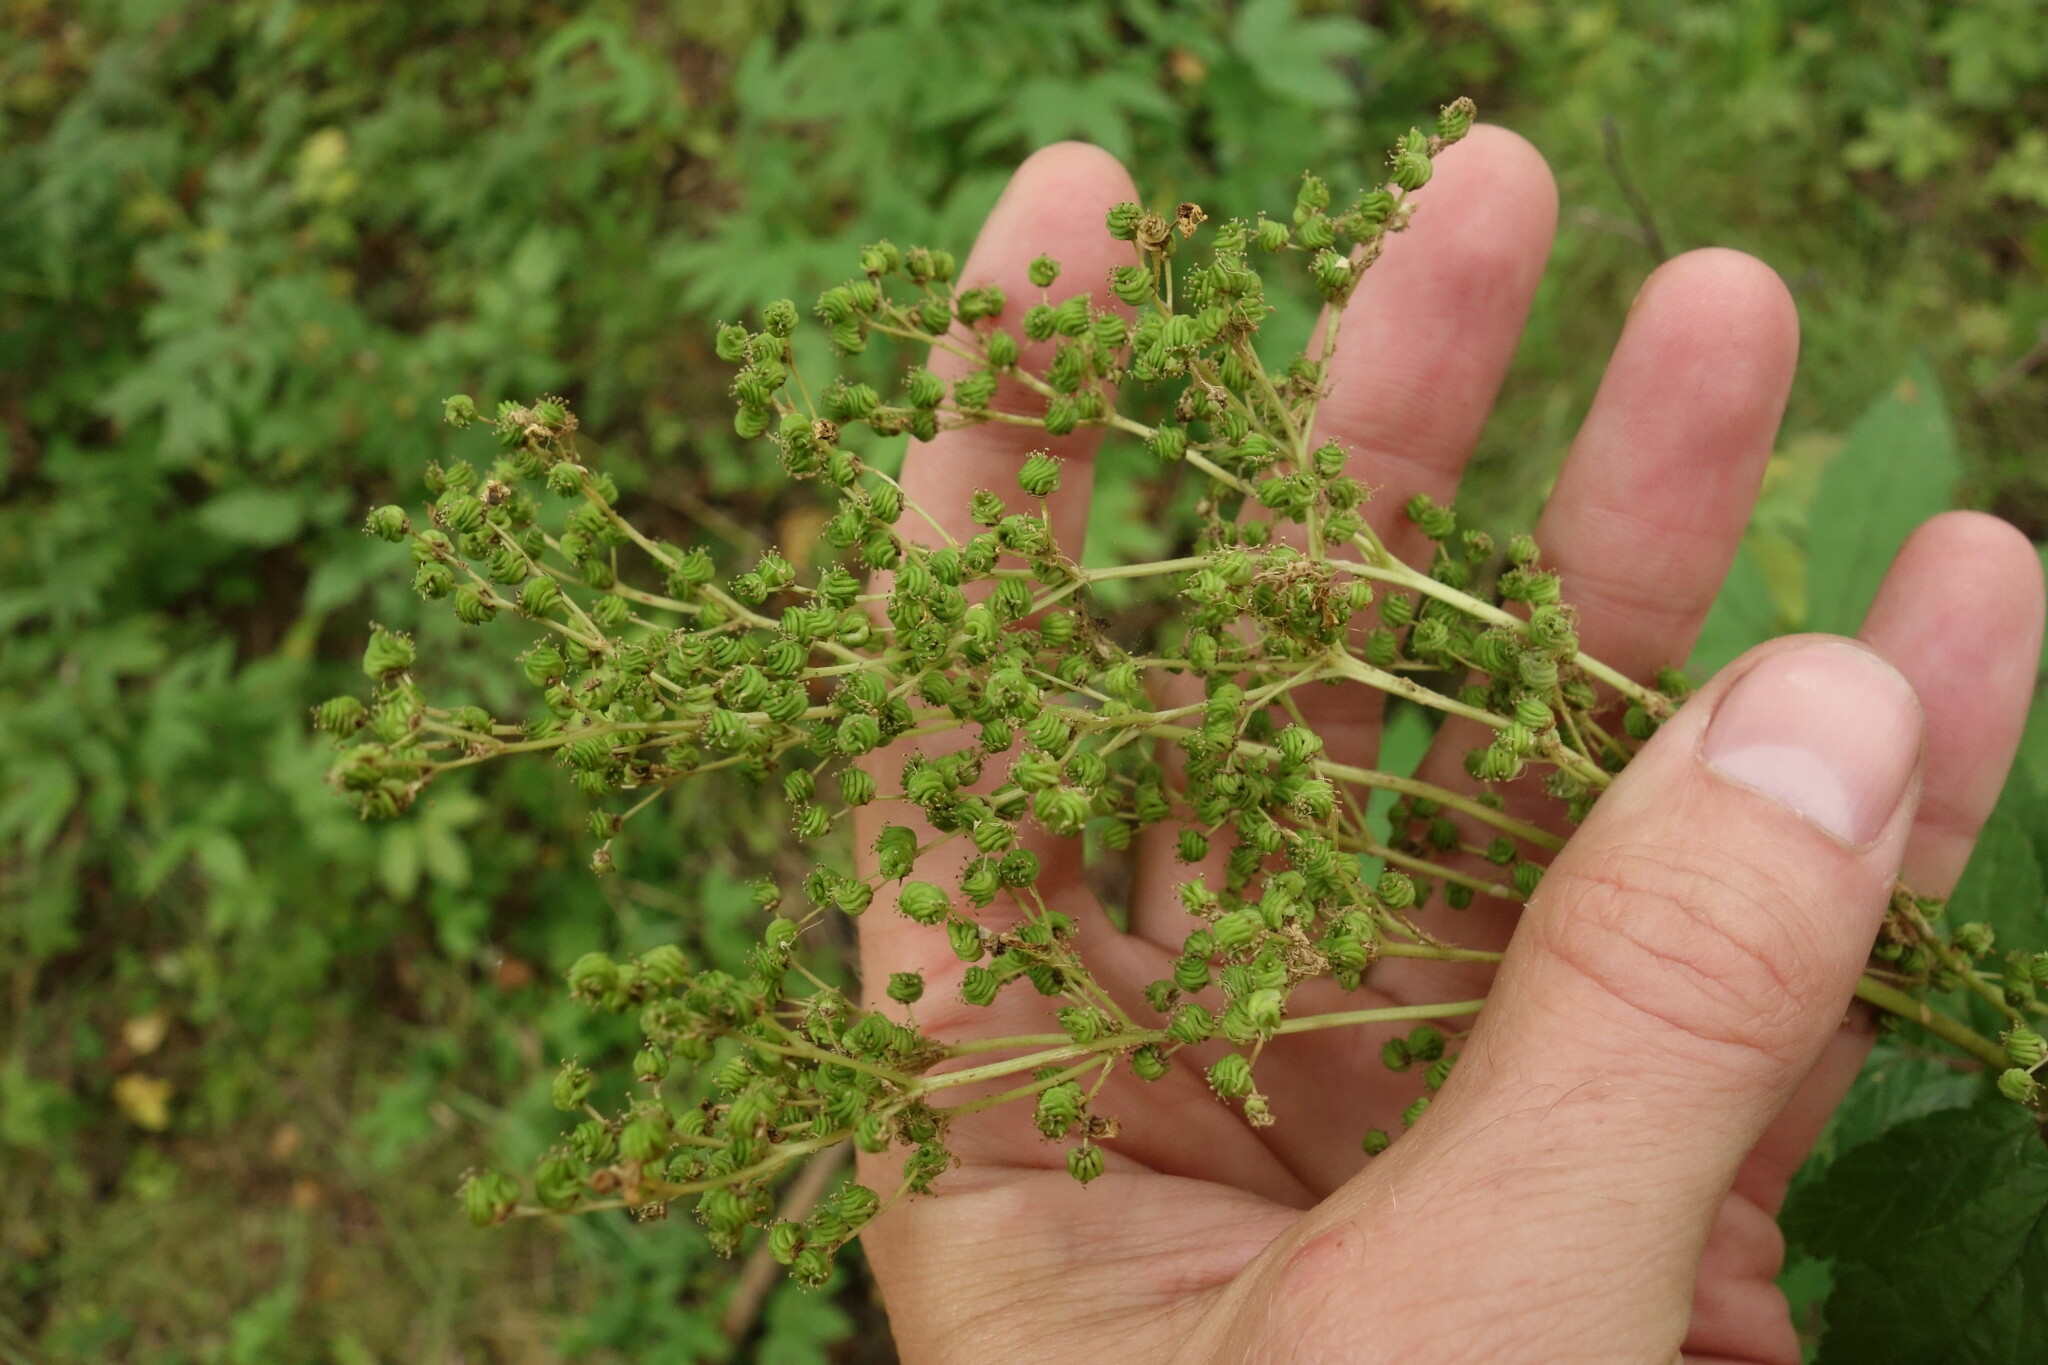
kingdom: Plantae
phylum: Tracheophyta
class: Magnoliopsida
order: Rosales
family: Rosaceae
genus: Filipendula
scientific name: Filipendula ulmaria
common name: Meadowsweet
